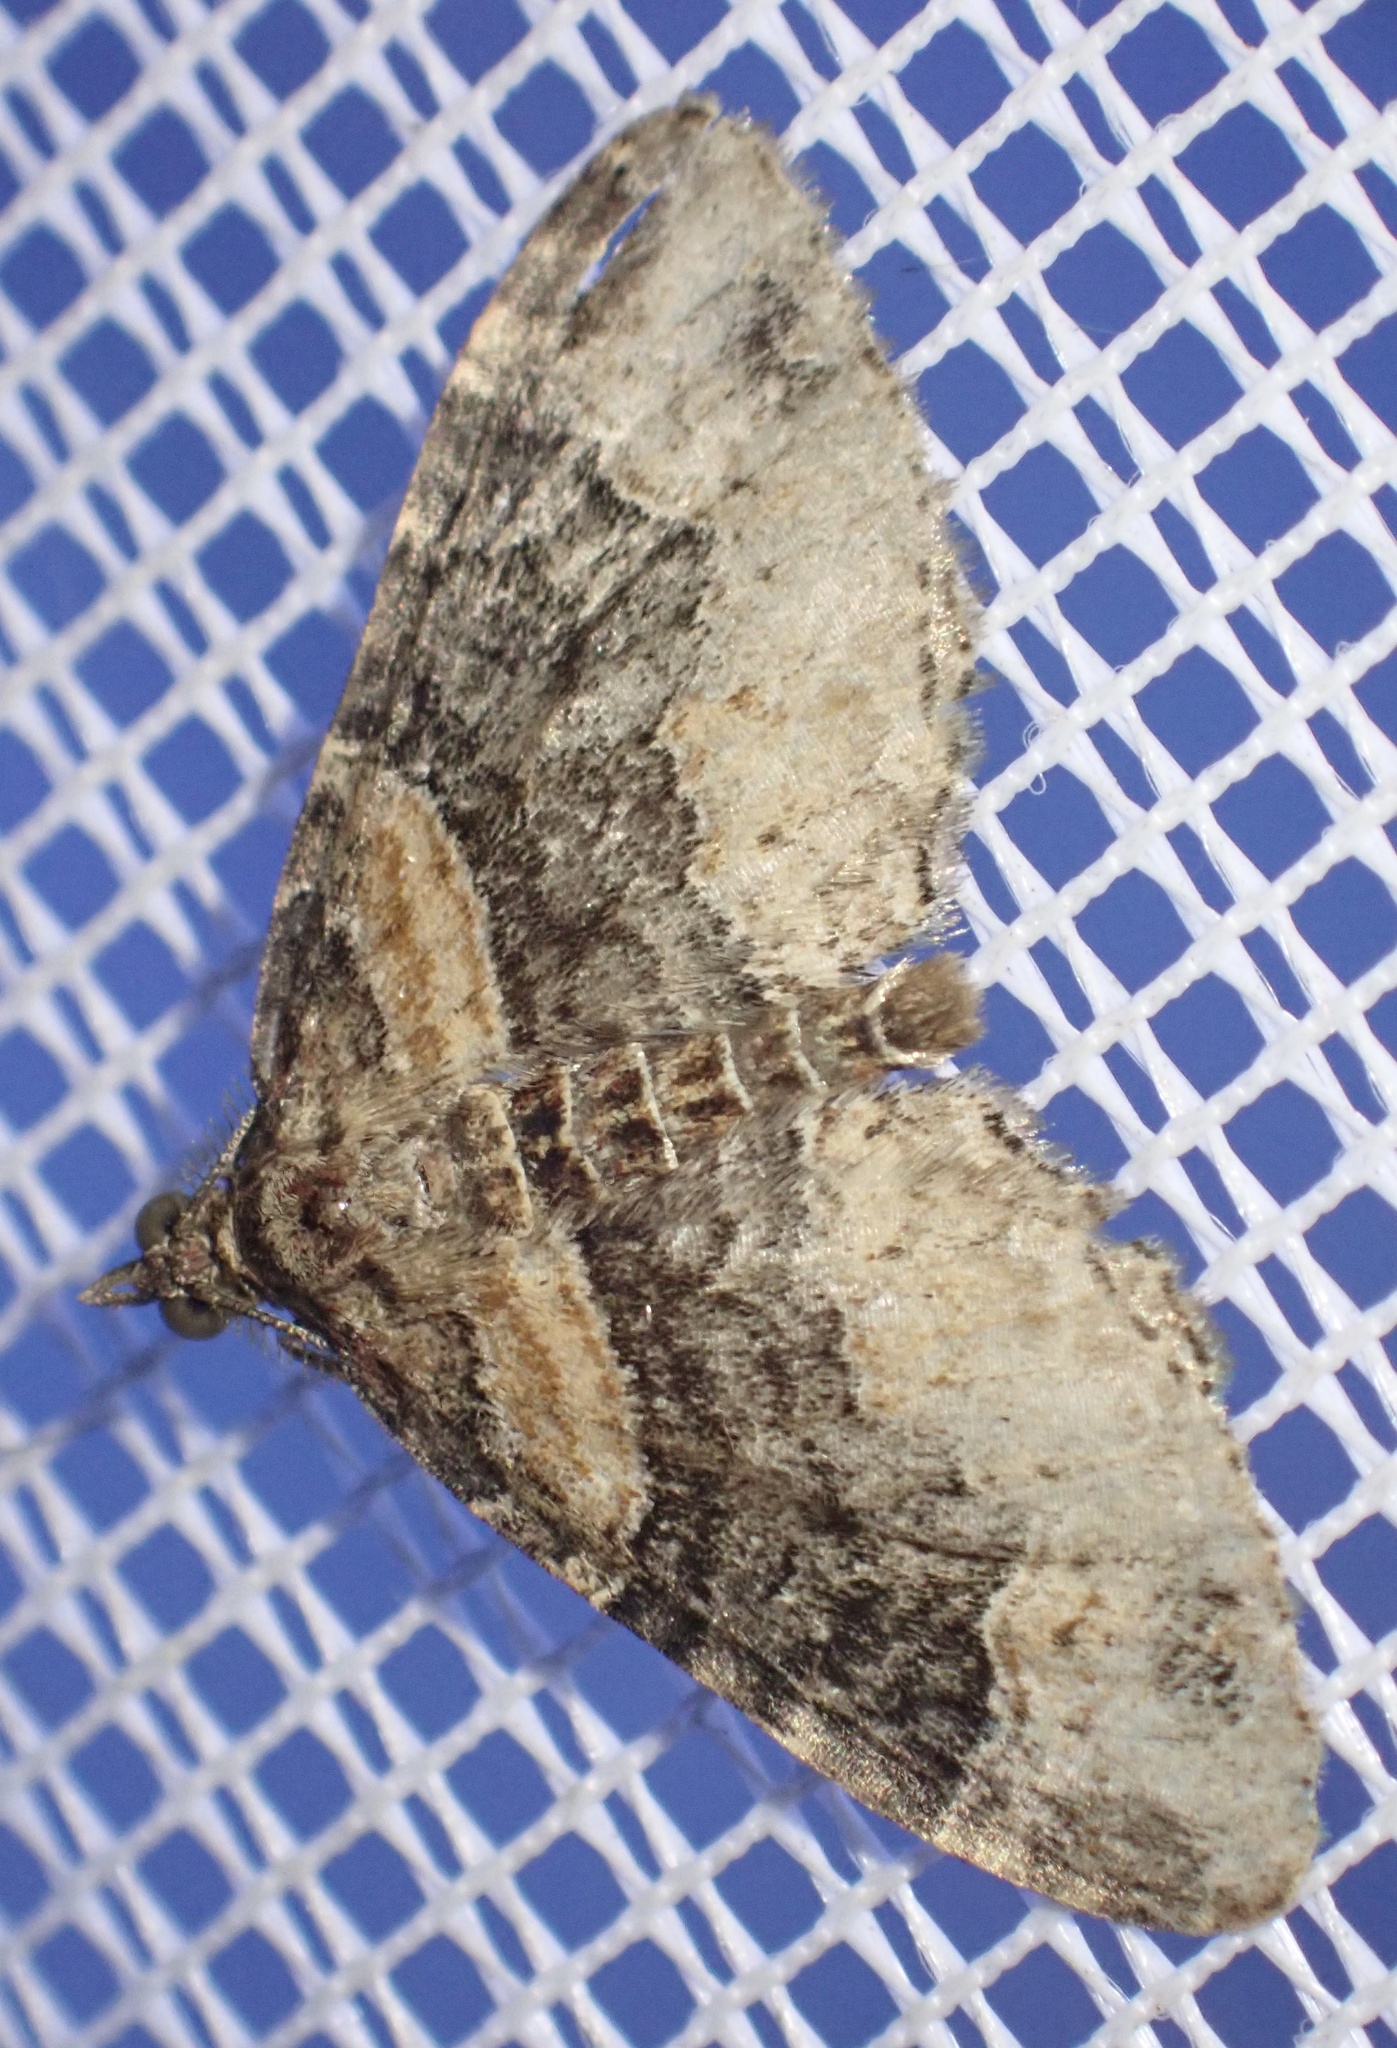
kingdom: Animalia
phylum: Arthropoda
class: Insecta
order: Lepidoptera
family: Geometridae
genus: Xanthorhoe
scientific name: Xanthorhoe ferrugata
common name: Dark-barred twin-spot carpet
